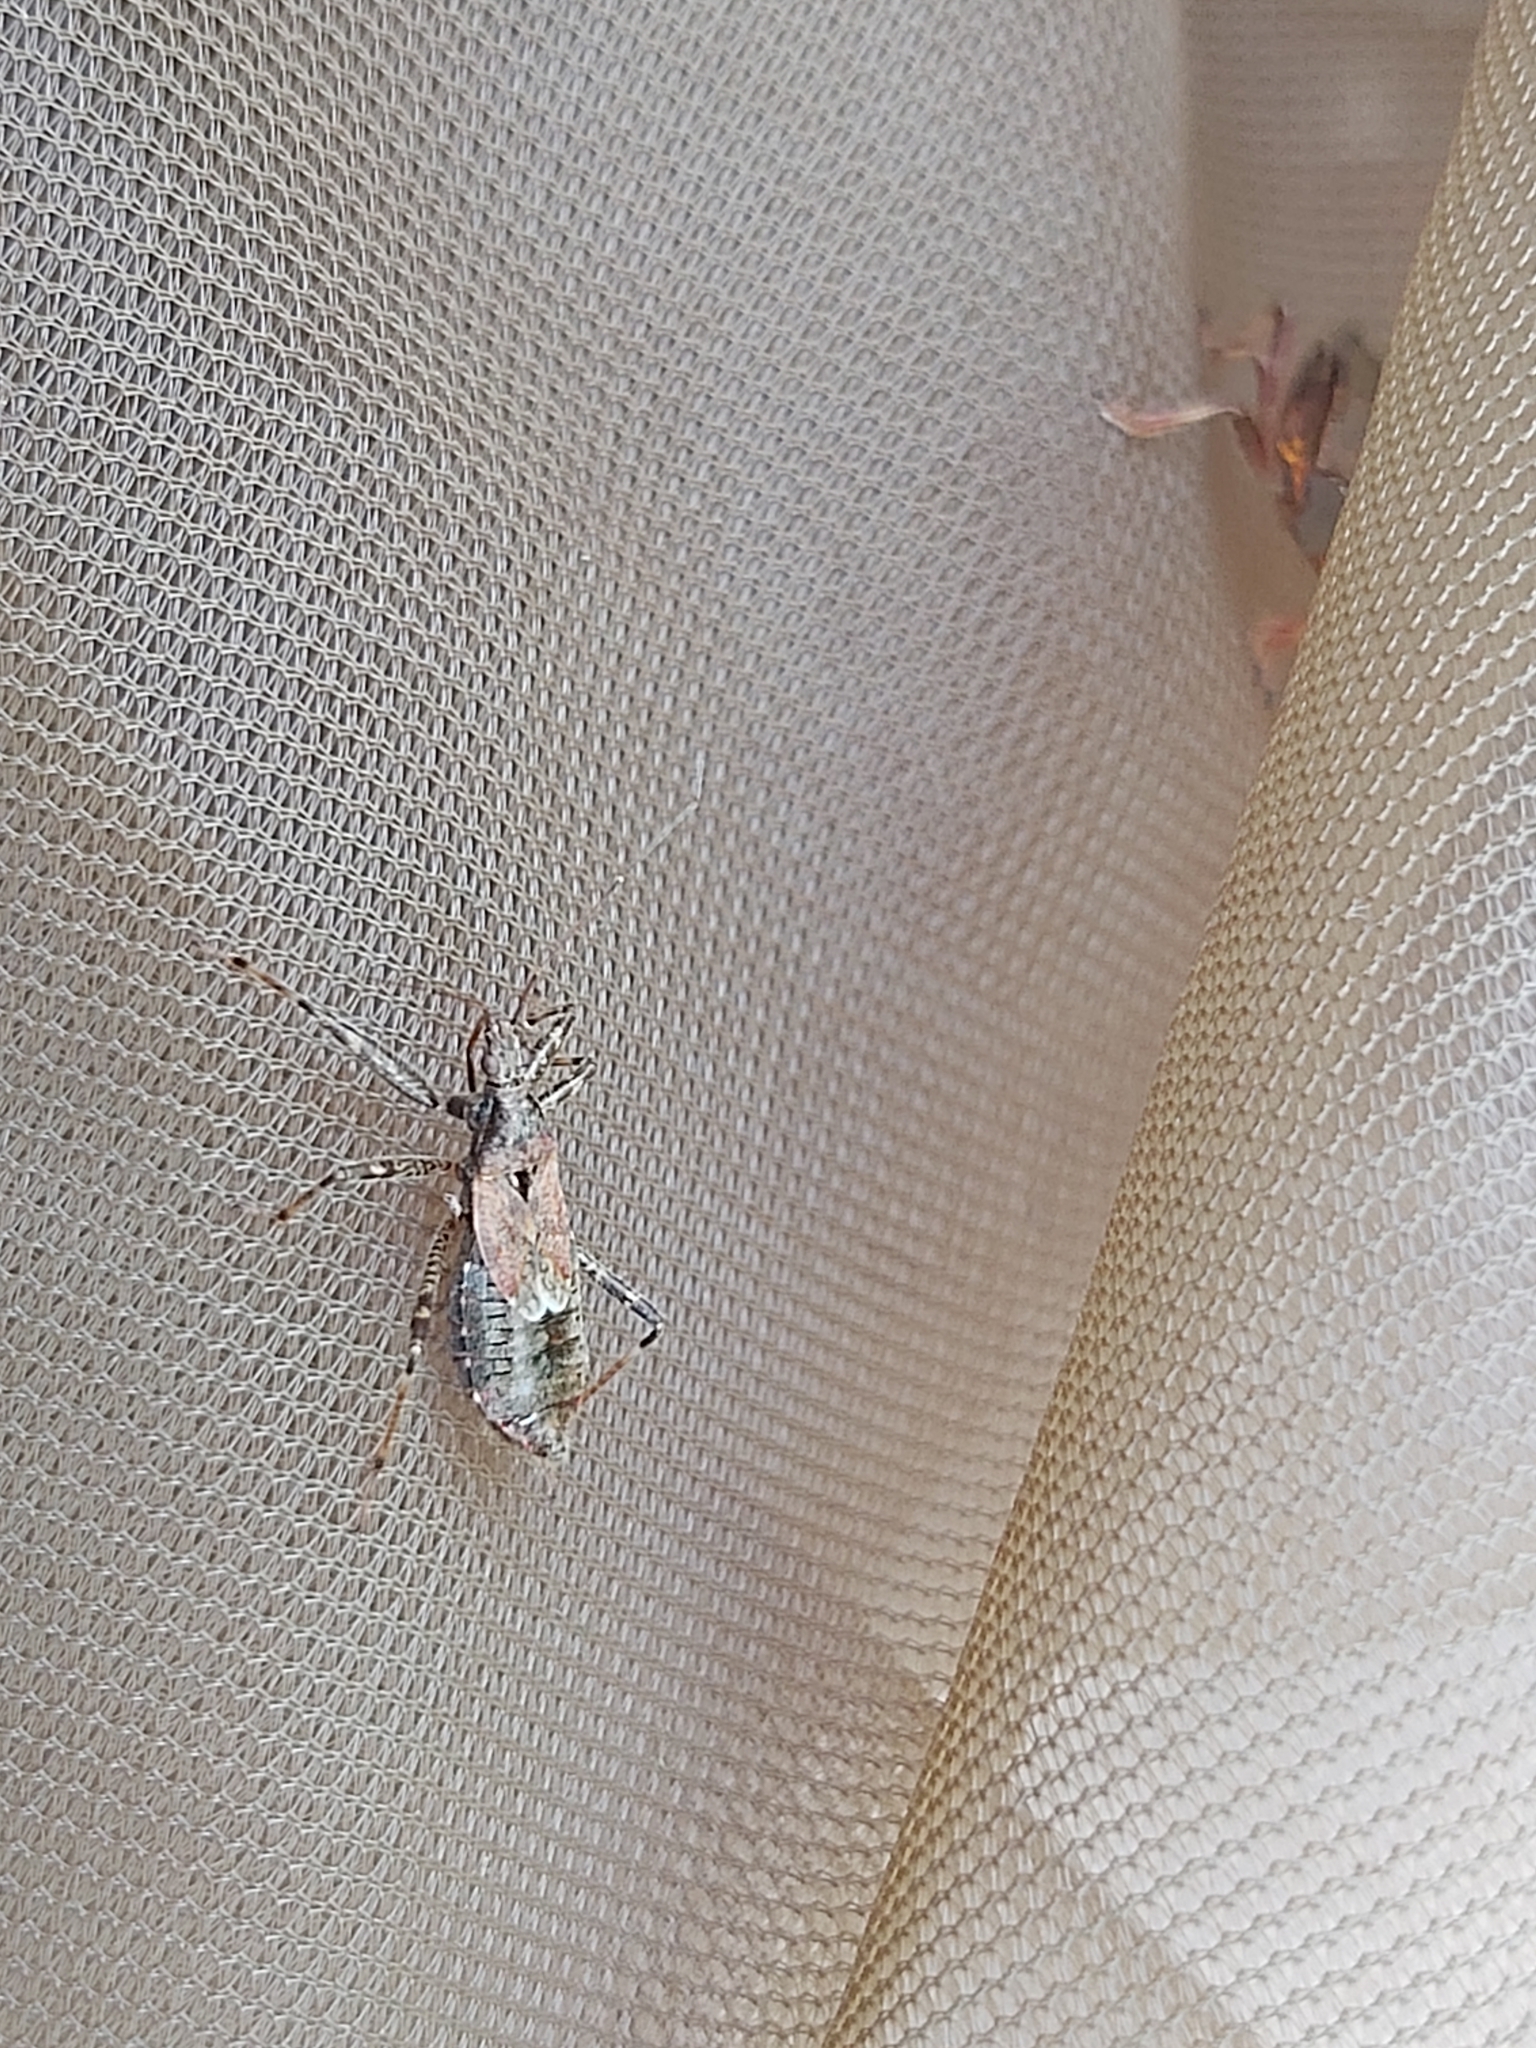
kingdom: Animalia
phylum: Arthropoda
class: Insecta
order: Hemiptera
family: Nabidae
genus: Himacerus
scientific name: Himacerus apterus
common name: Tree damsel bug
